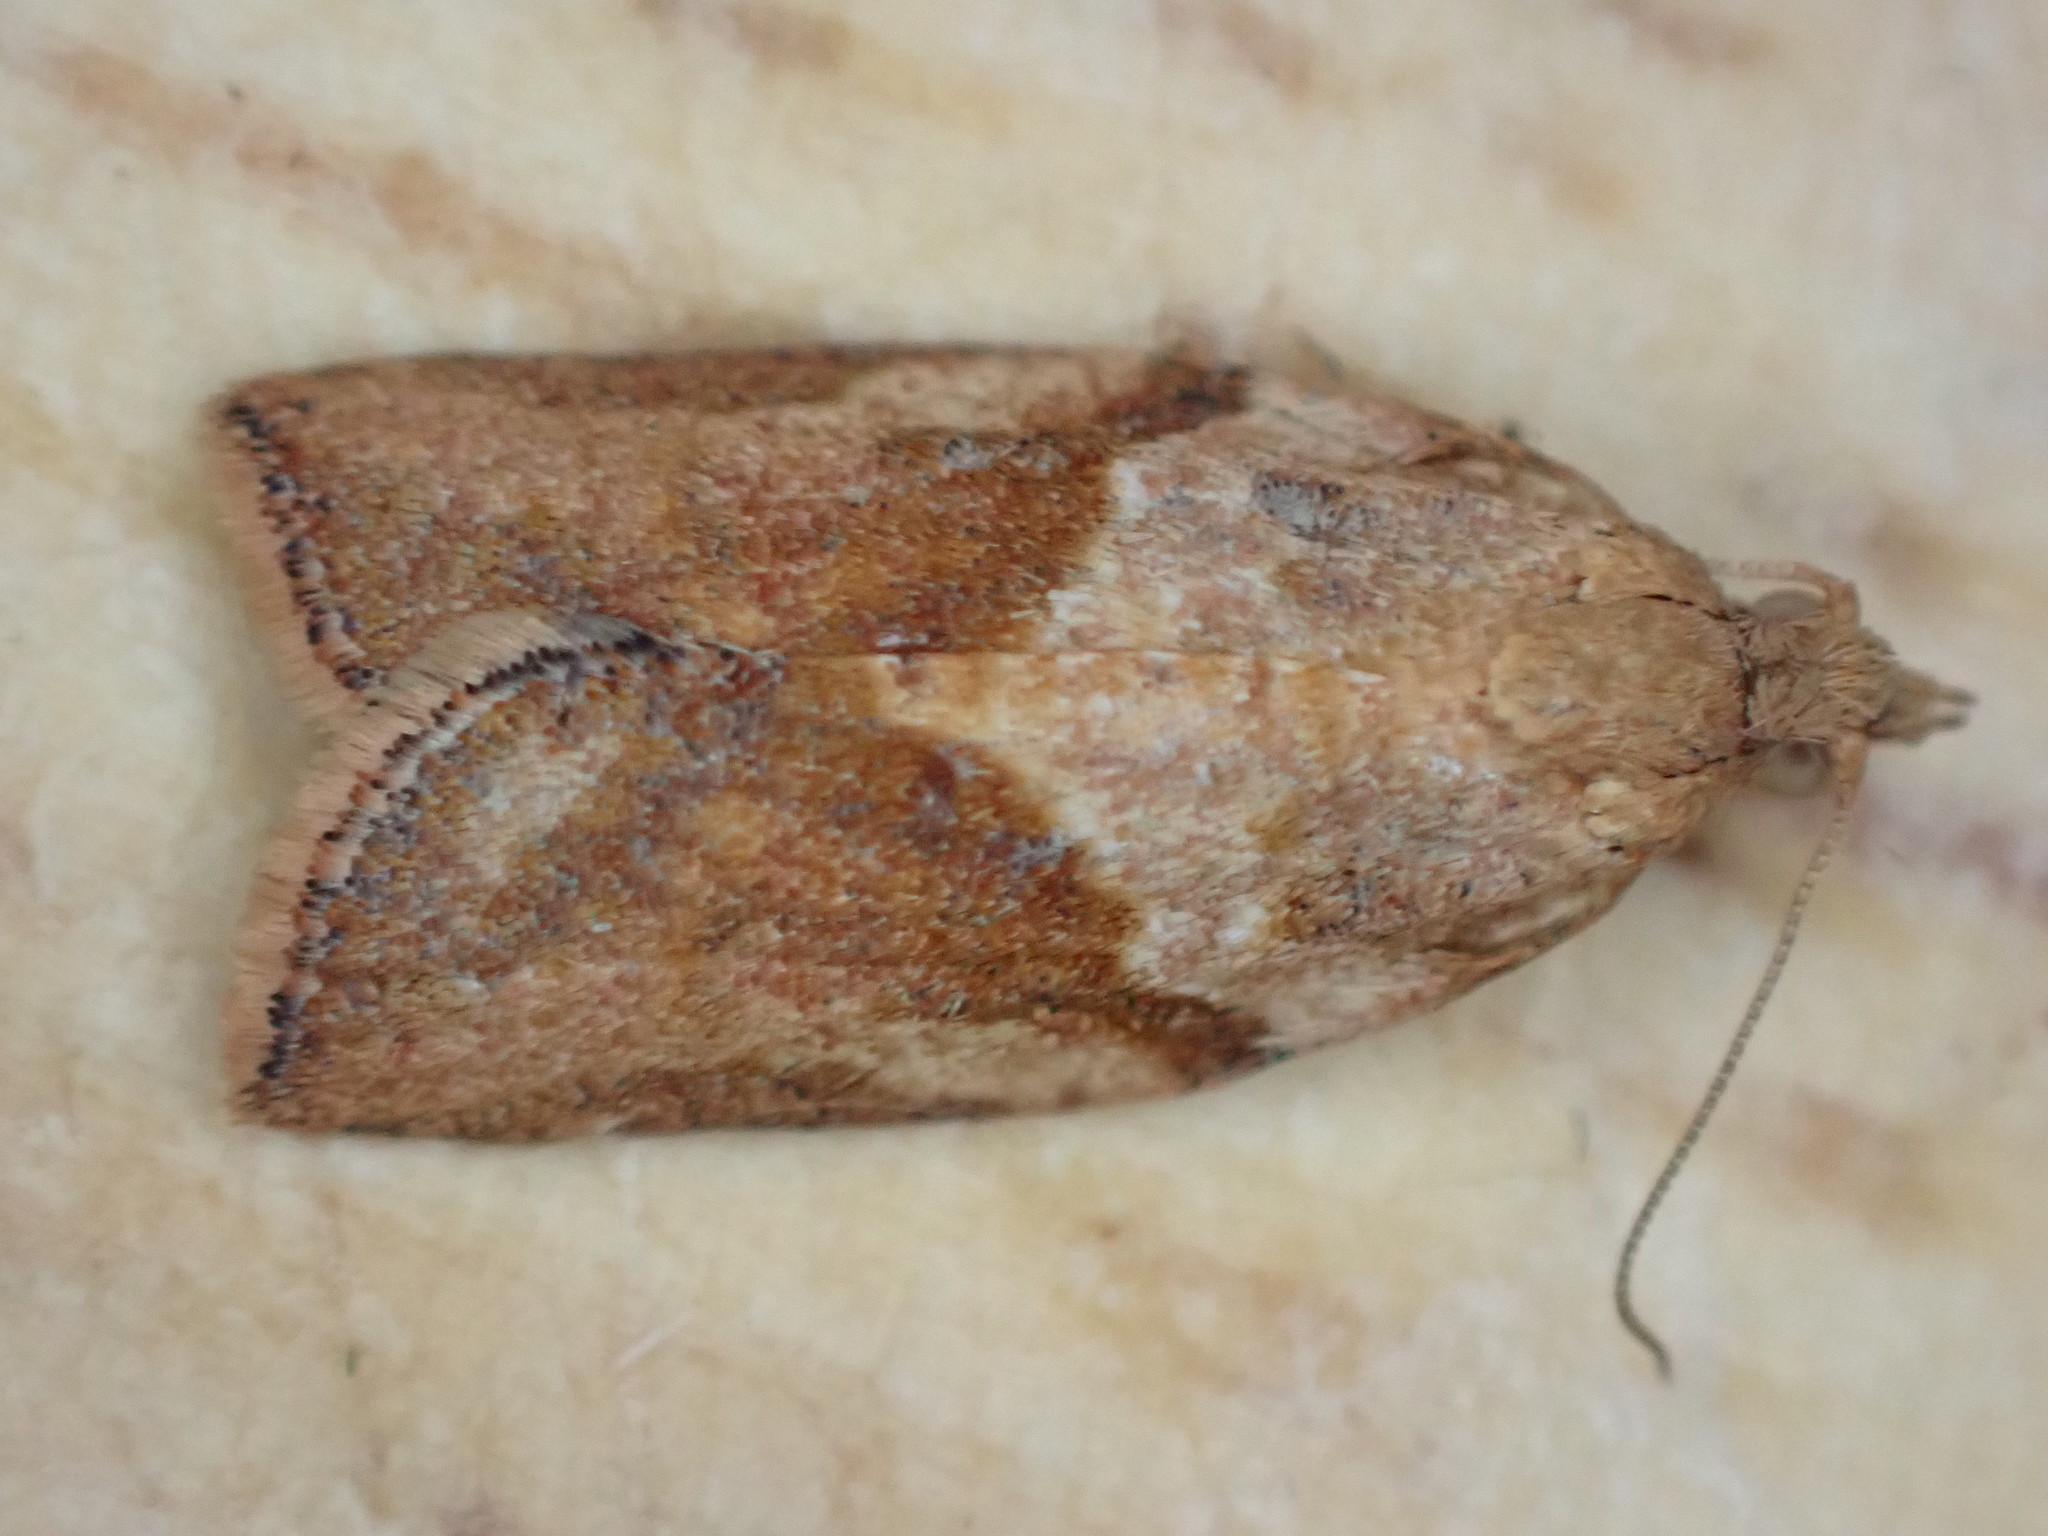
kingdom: Animalia
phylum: Arthropoda
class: Insecta
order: Lepidoptera
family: Tortricidae
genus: Epiphyas
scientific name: Epiphyas postvittana
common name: Light brown apple moth
